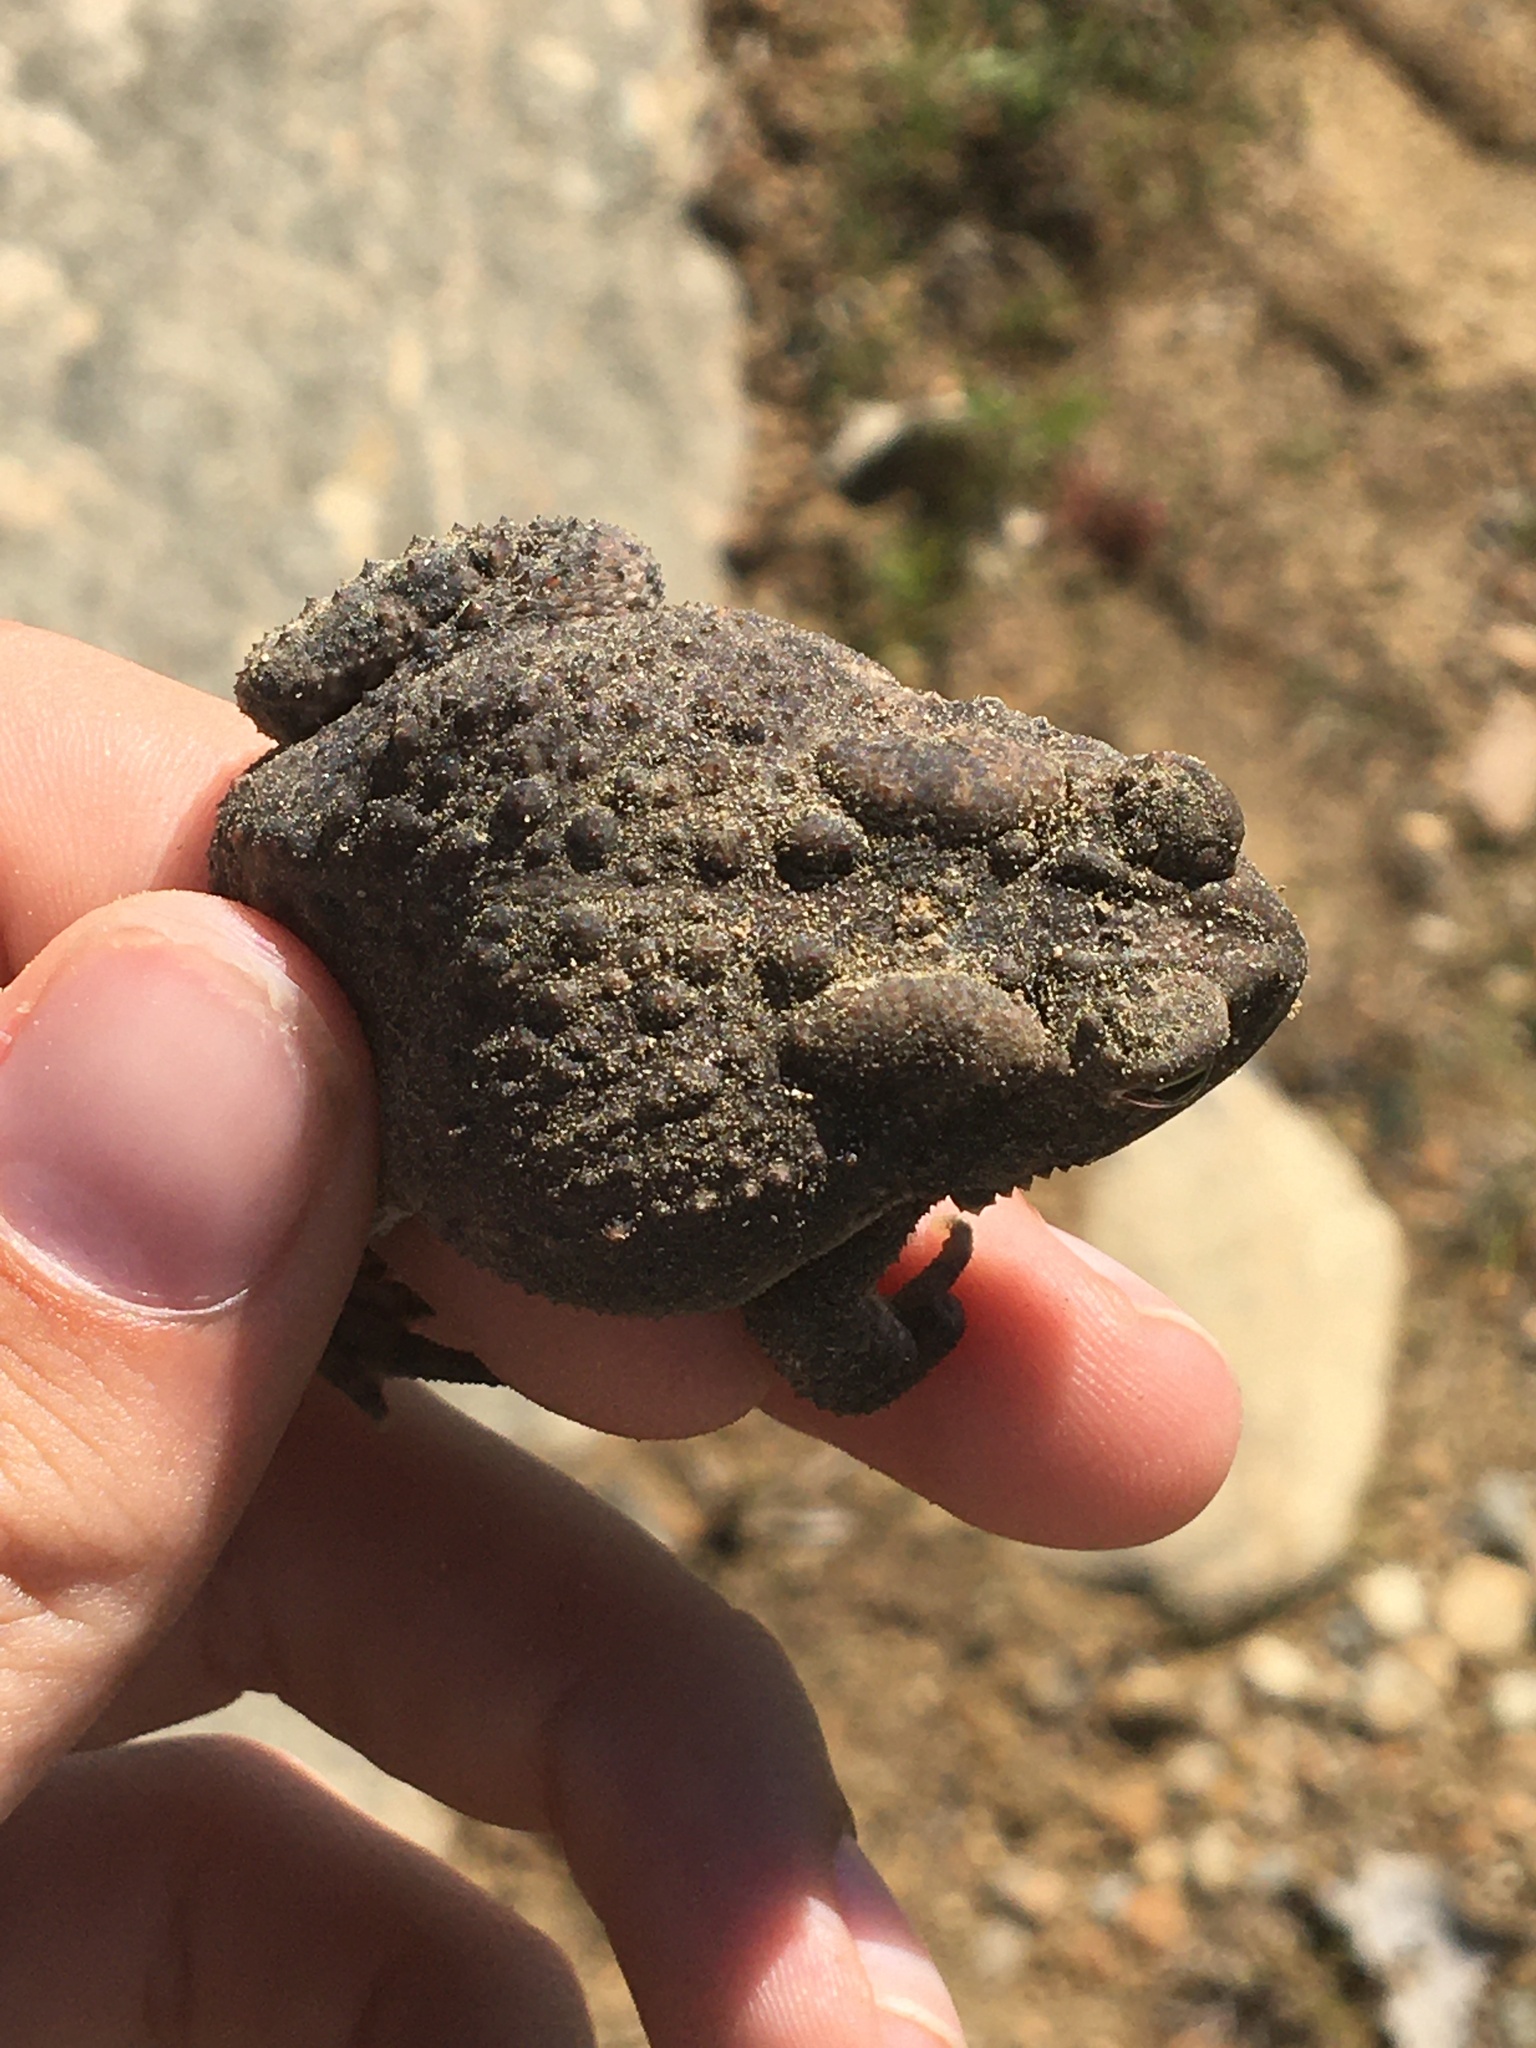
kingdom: Animalia
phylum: Chordata
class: Amphibia
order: Anura
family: Bufonidae
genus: Anaxyrus
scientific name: Anaxyrus americanus
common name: American toad
